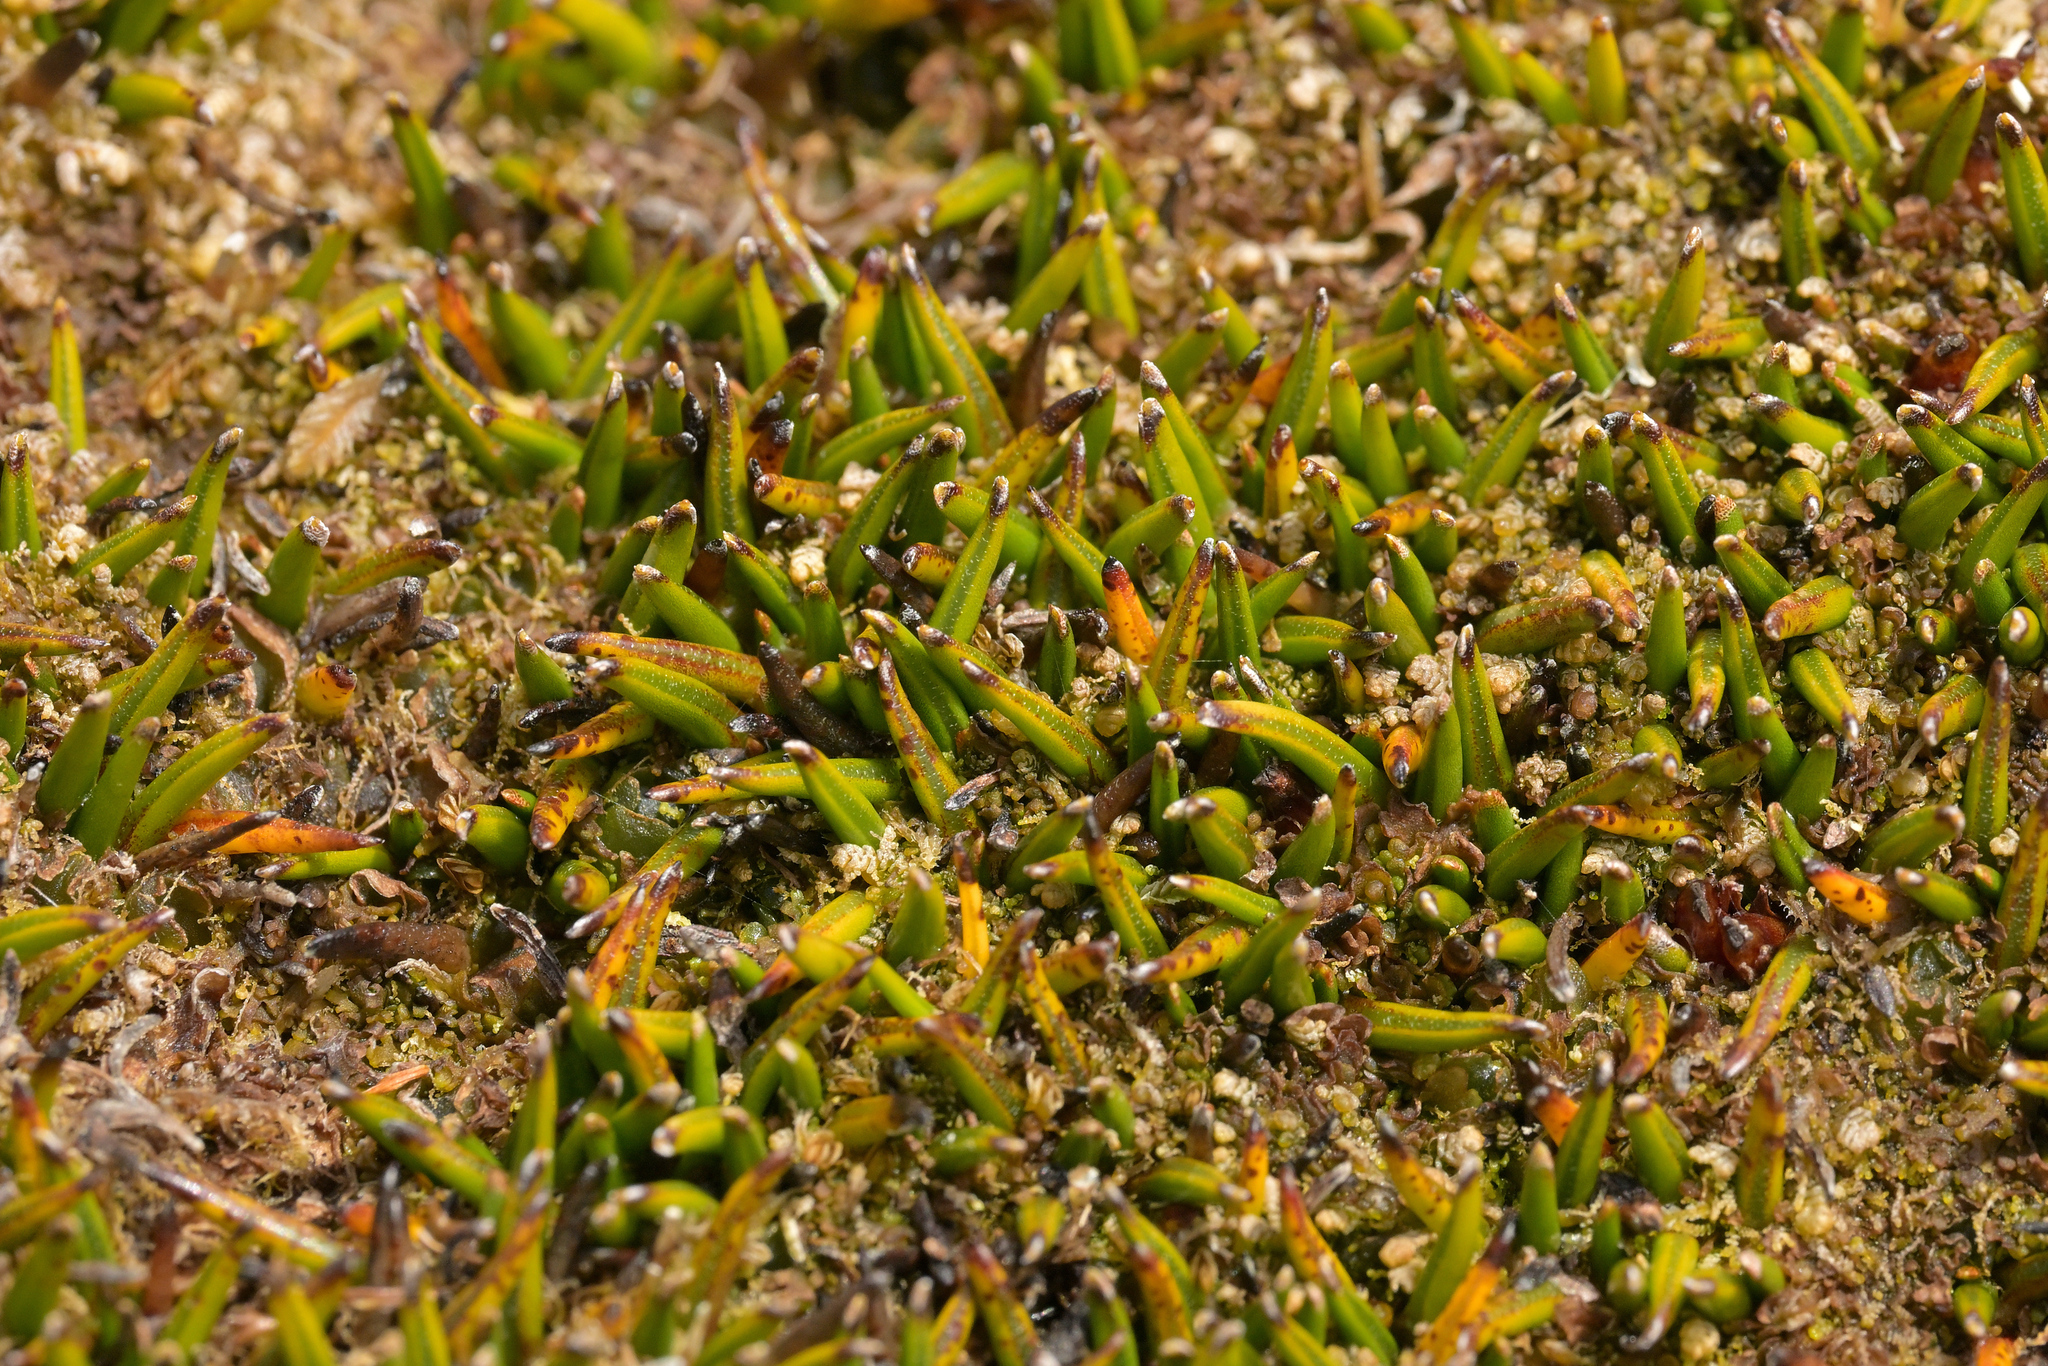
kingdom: Plantae
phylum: Tracheophyta
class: Liliopsida
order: Asparagales
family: Asteliaceae
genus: Astelia
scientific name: Astelia subulata
